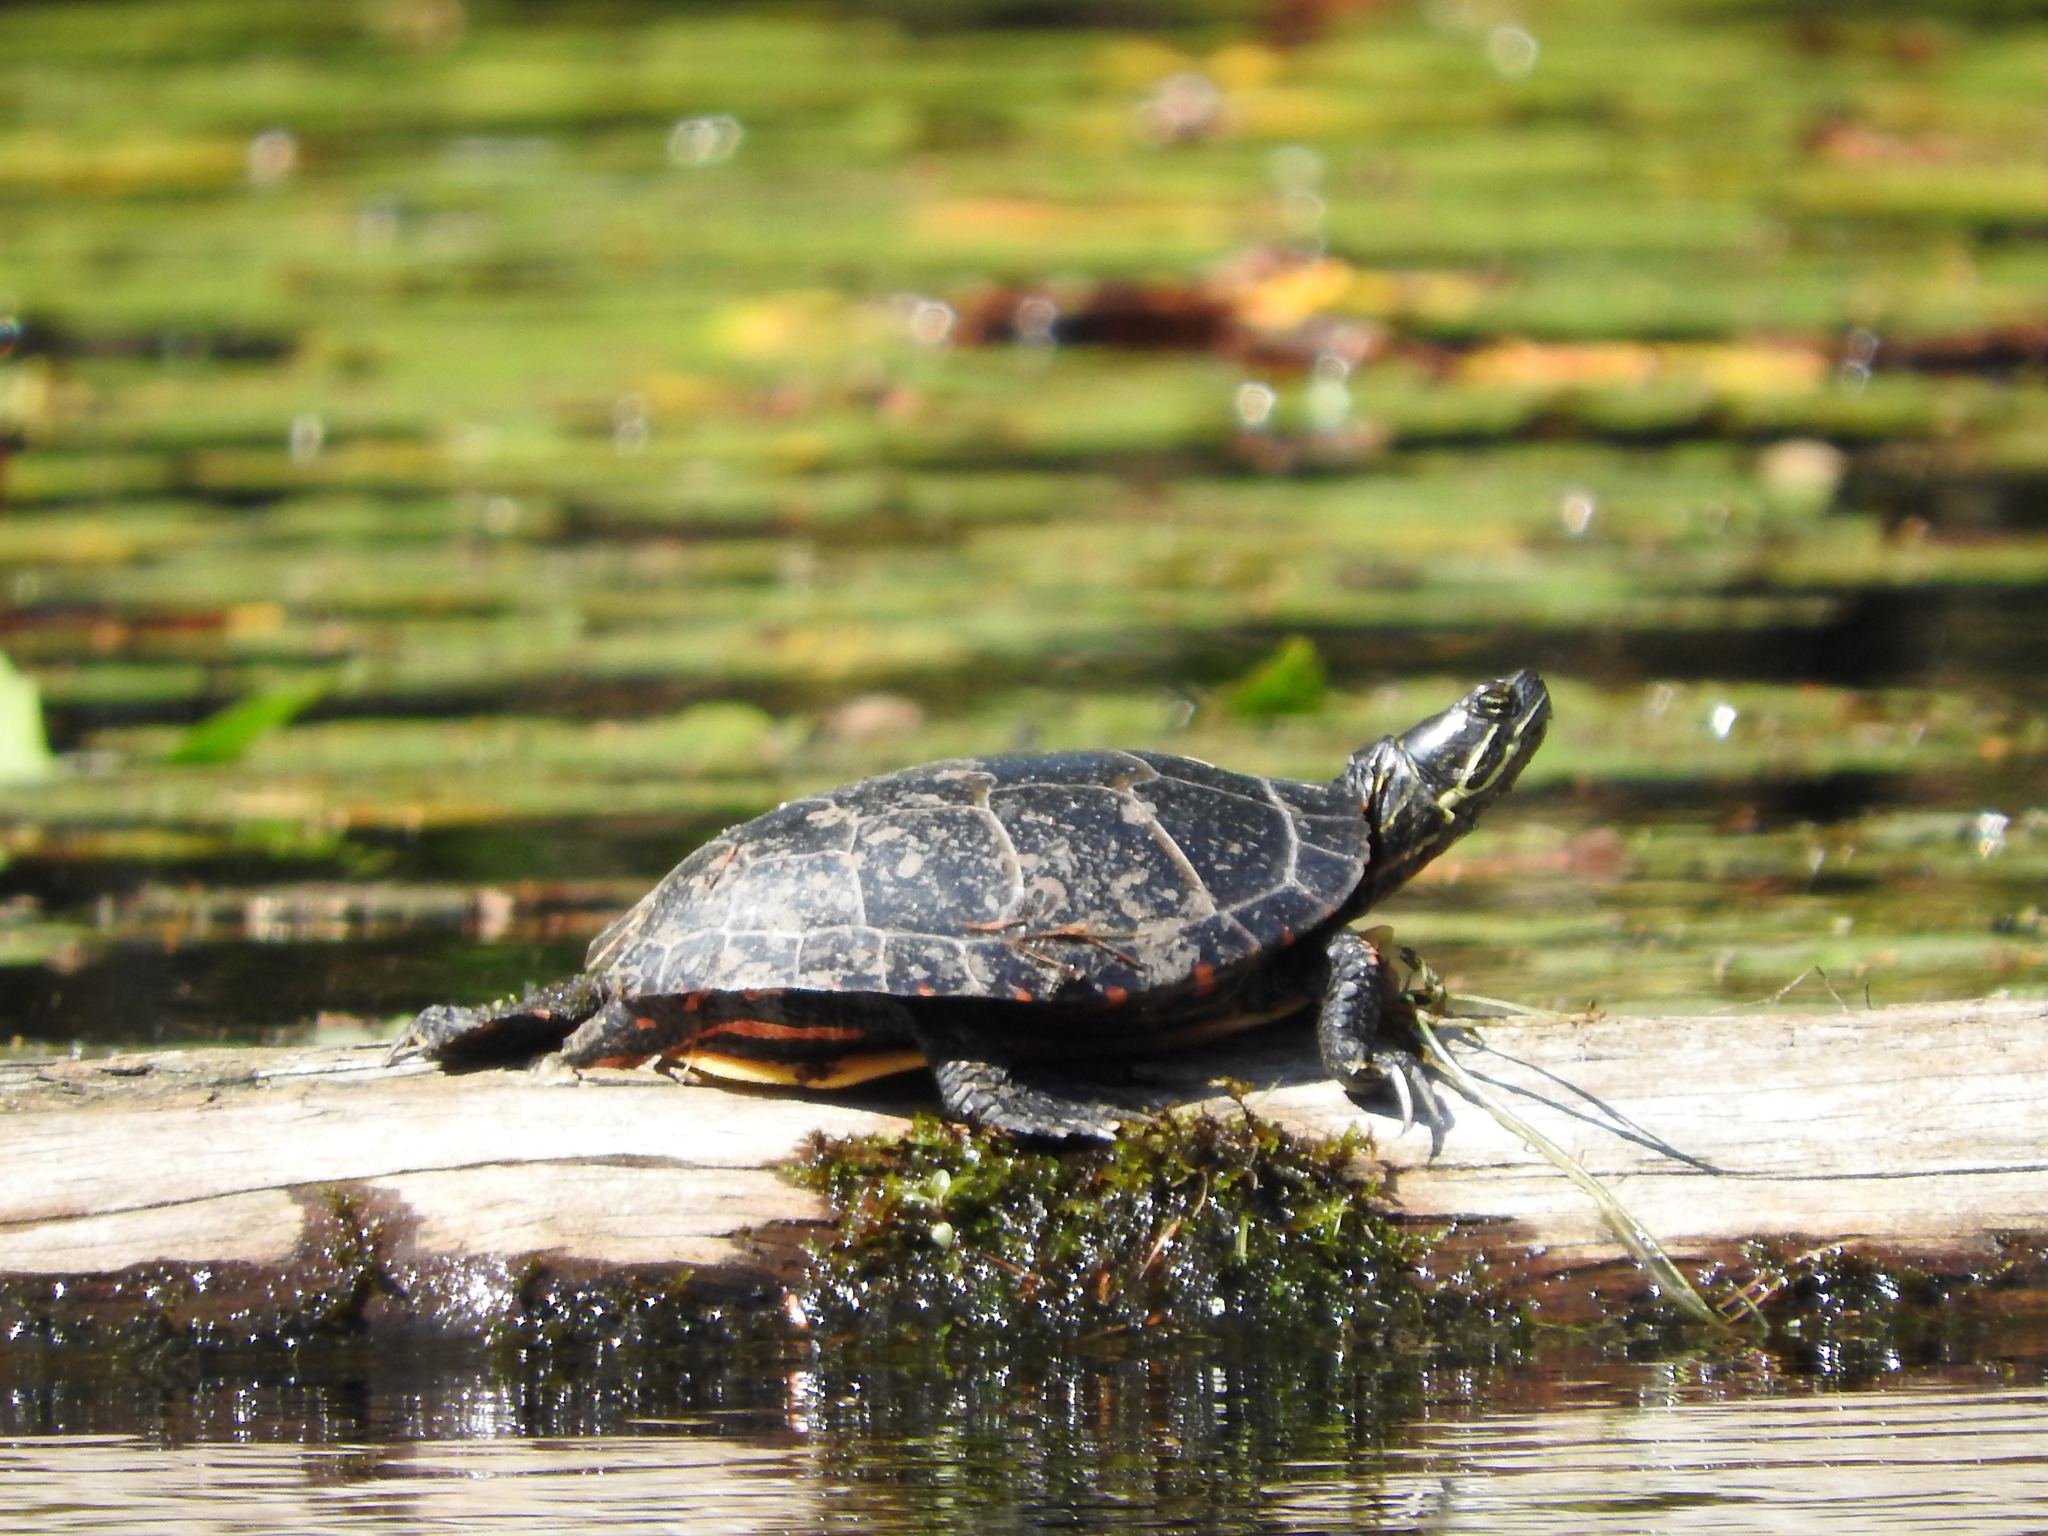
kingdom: Animalia
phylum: Chordata
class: Testudines
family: Emydidae
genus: Chrysemys
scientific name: Chrysemys picta
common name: Painted turtle
